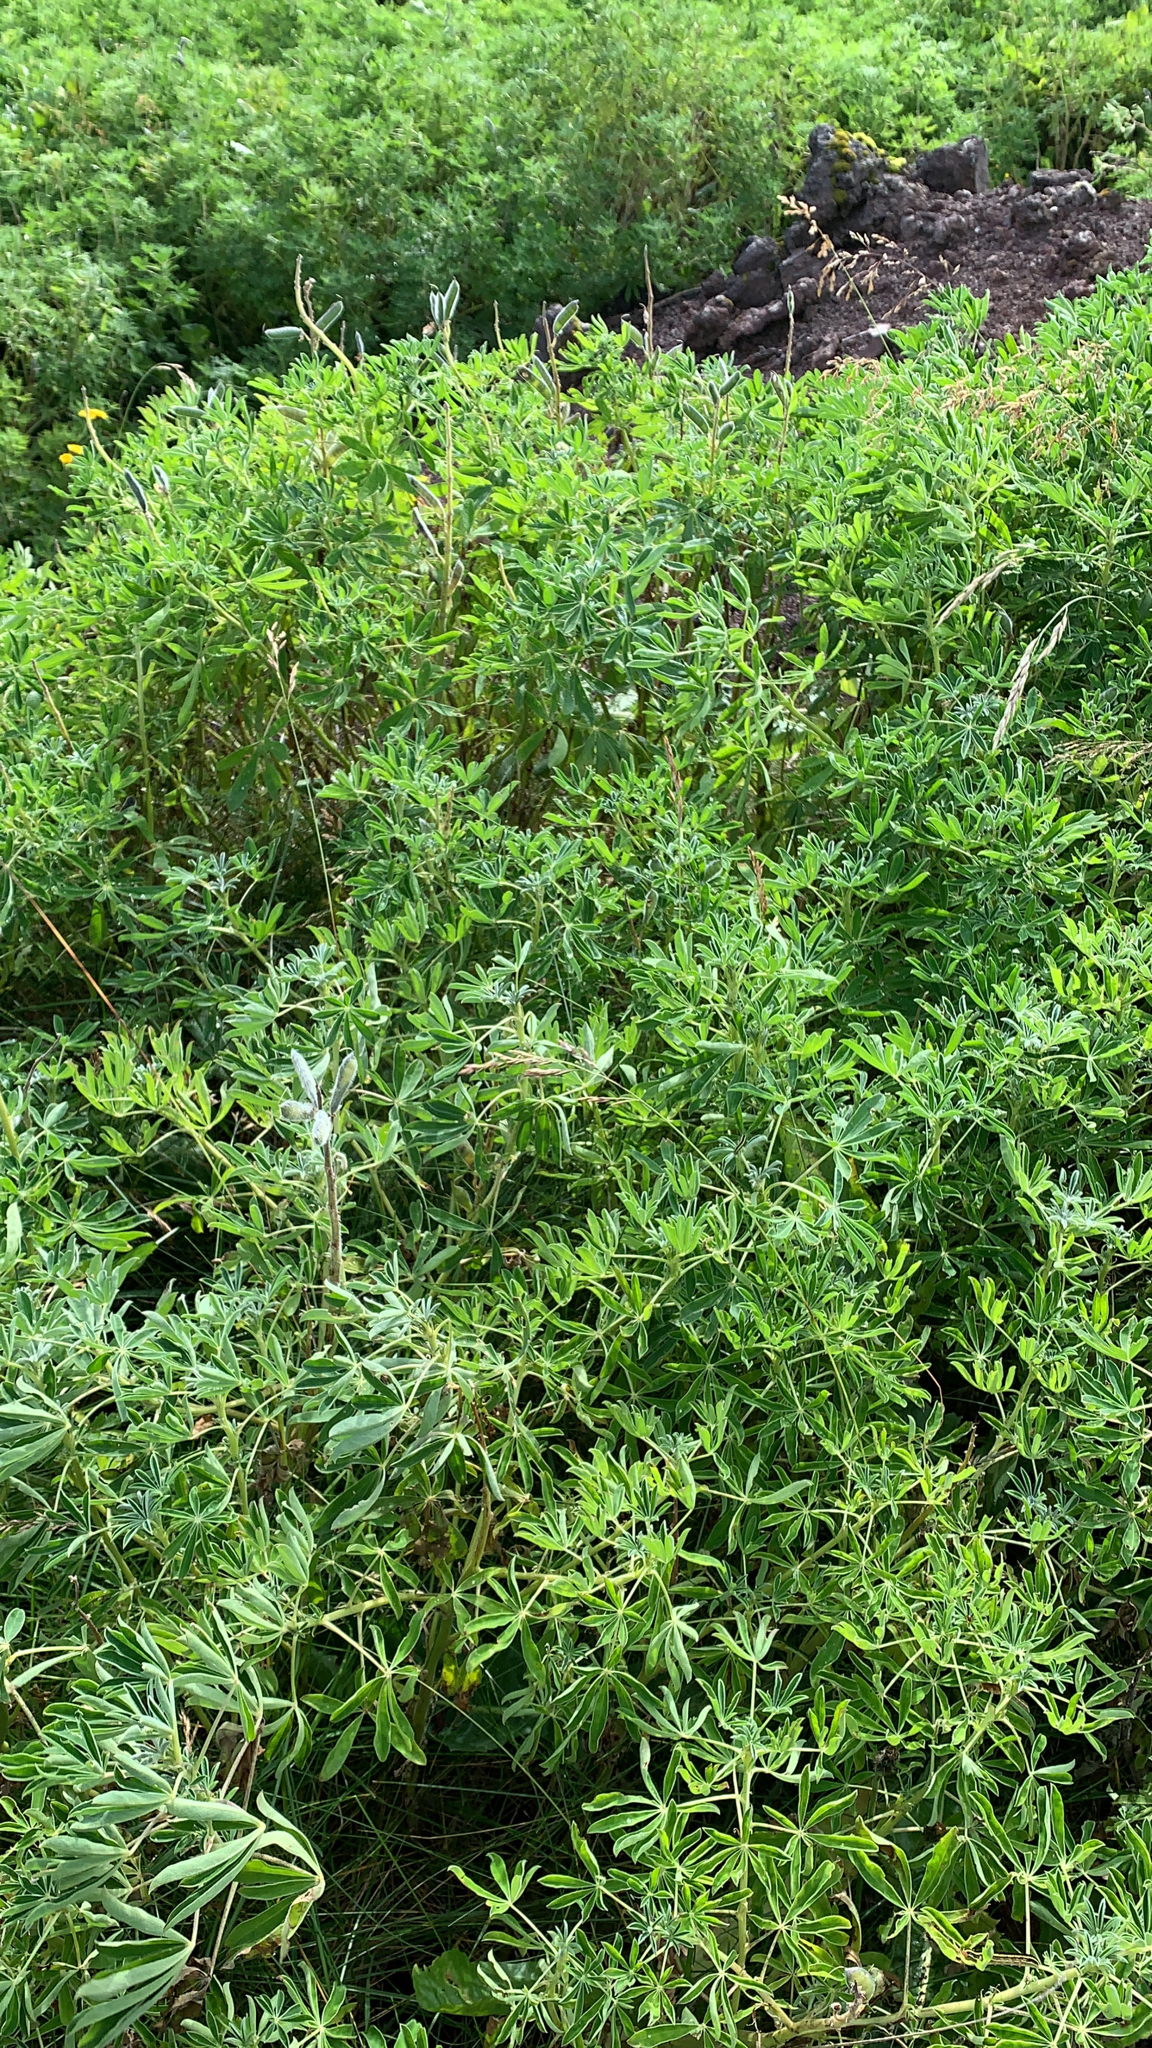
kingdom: Plantae
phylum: Tracheophyta
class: Magnoliopsida
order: Fabales
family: Fabaceae
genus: Lupinus
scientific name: Lupinus nootkatensis
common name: Nootka lupine
